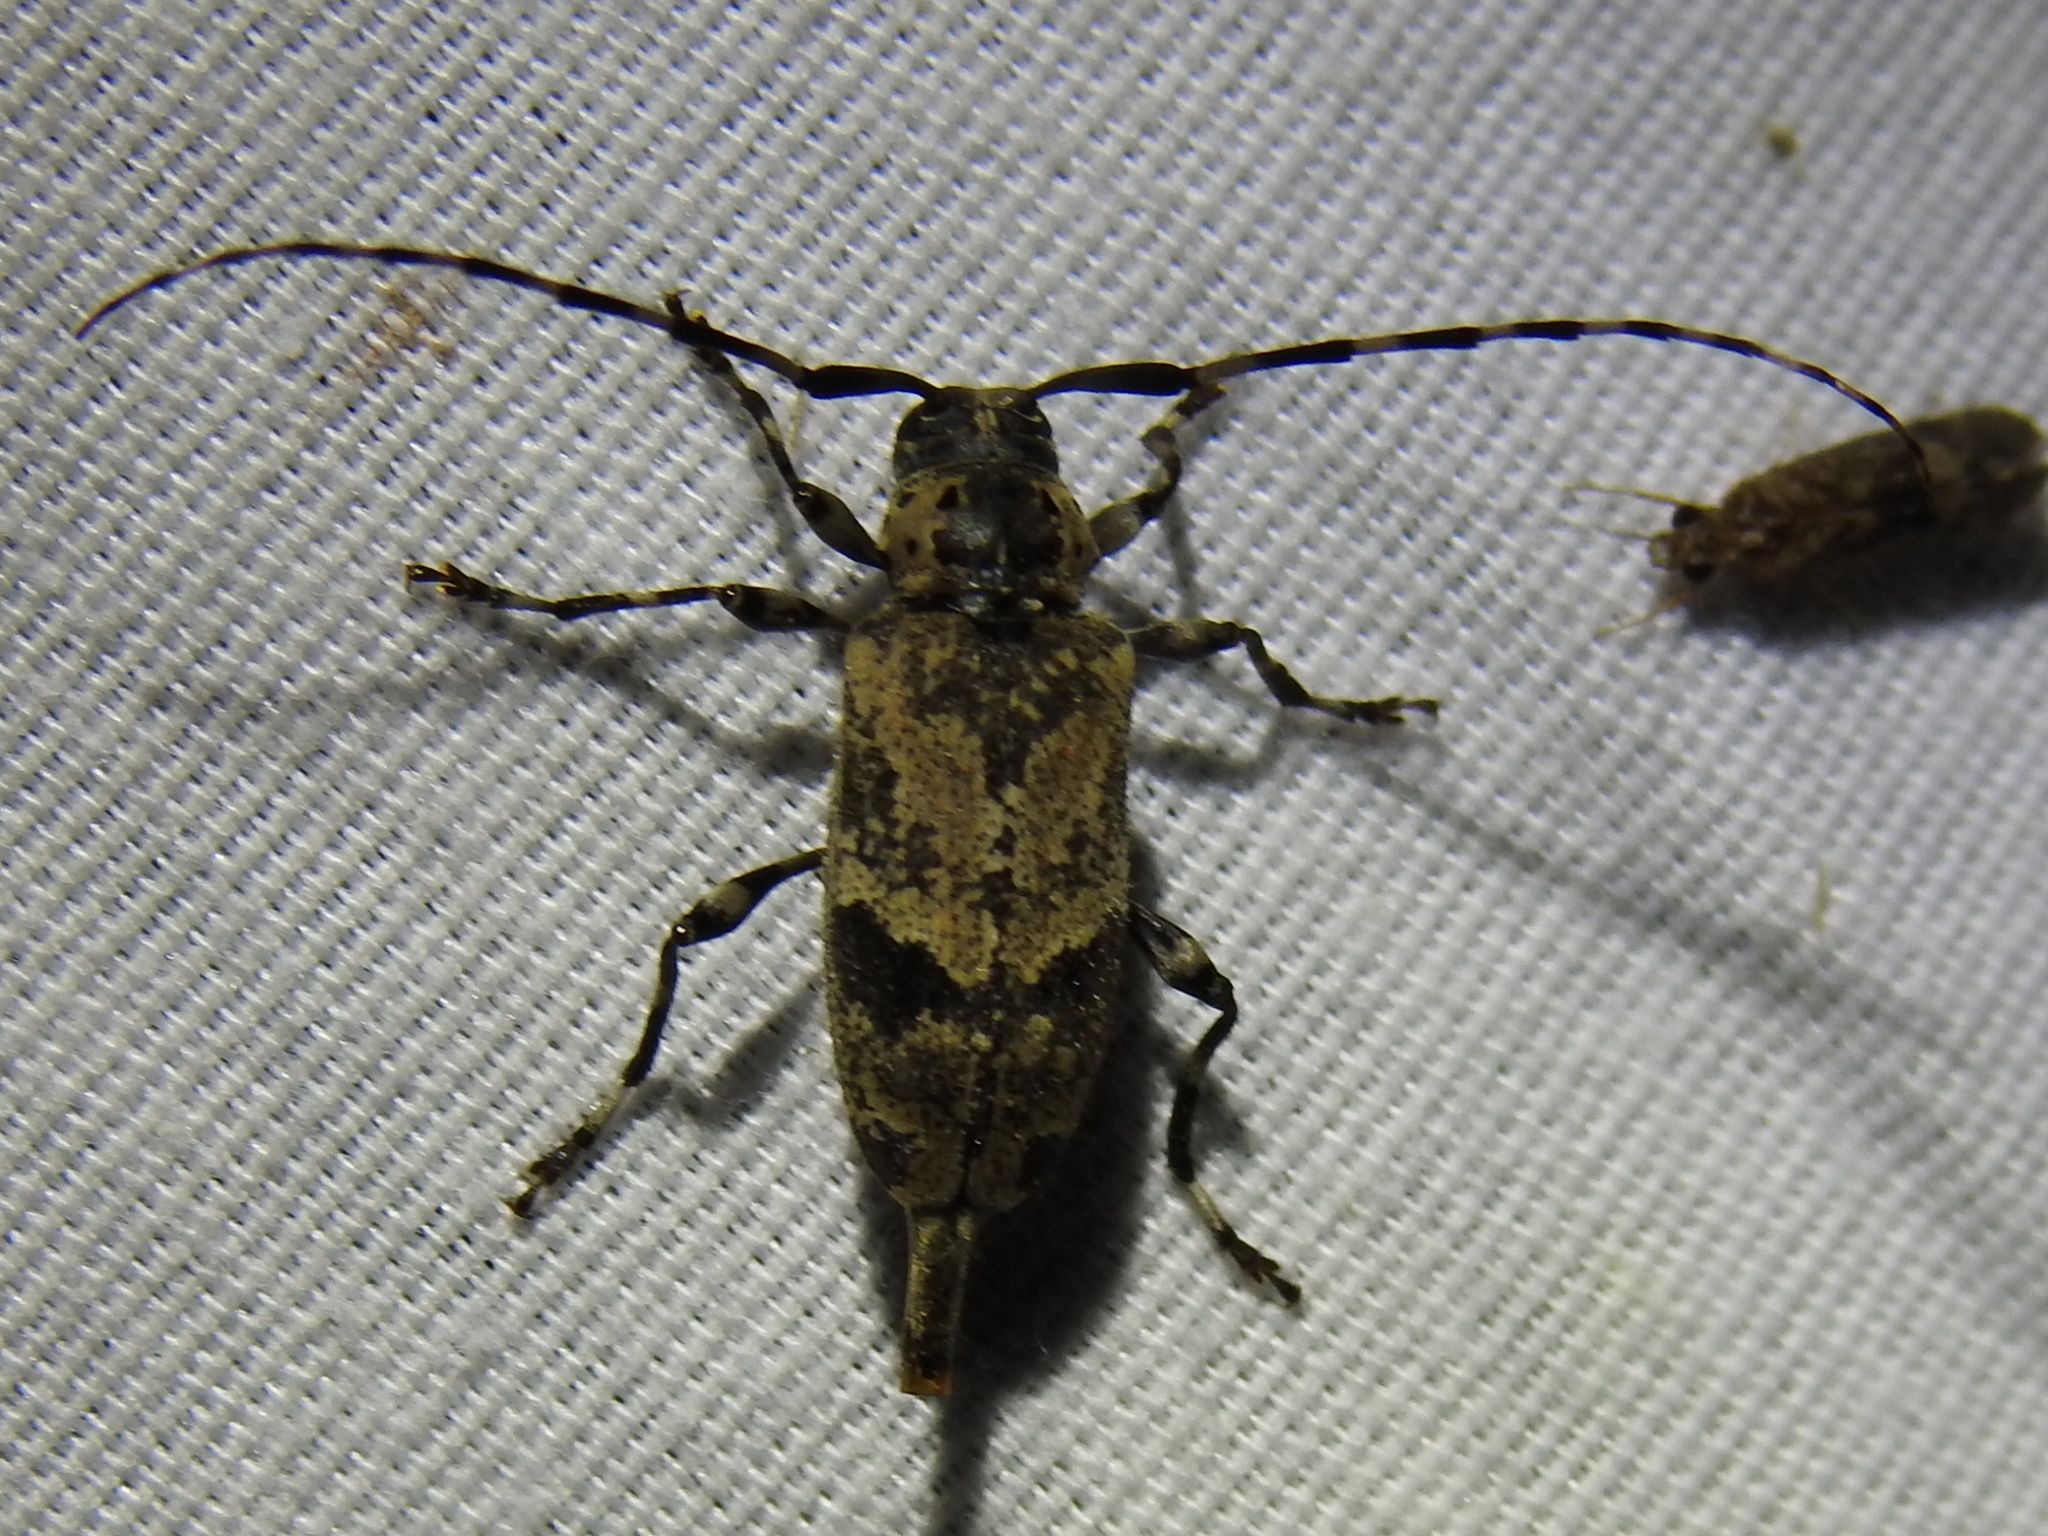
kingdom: Animalia
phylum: Arthropoda
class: Insecta
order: Coleoptera
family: Cerambycidae
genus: Graphisurus
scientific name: Graphisurus triangulifer
